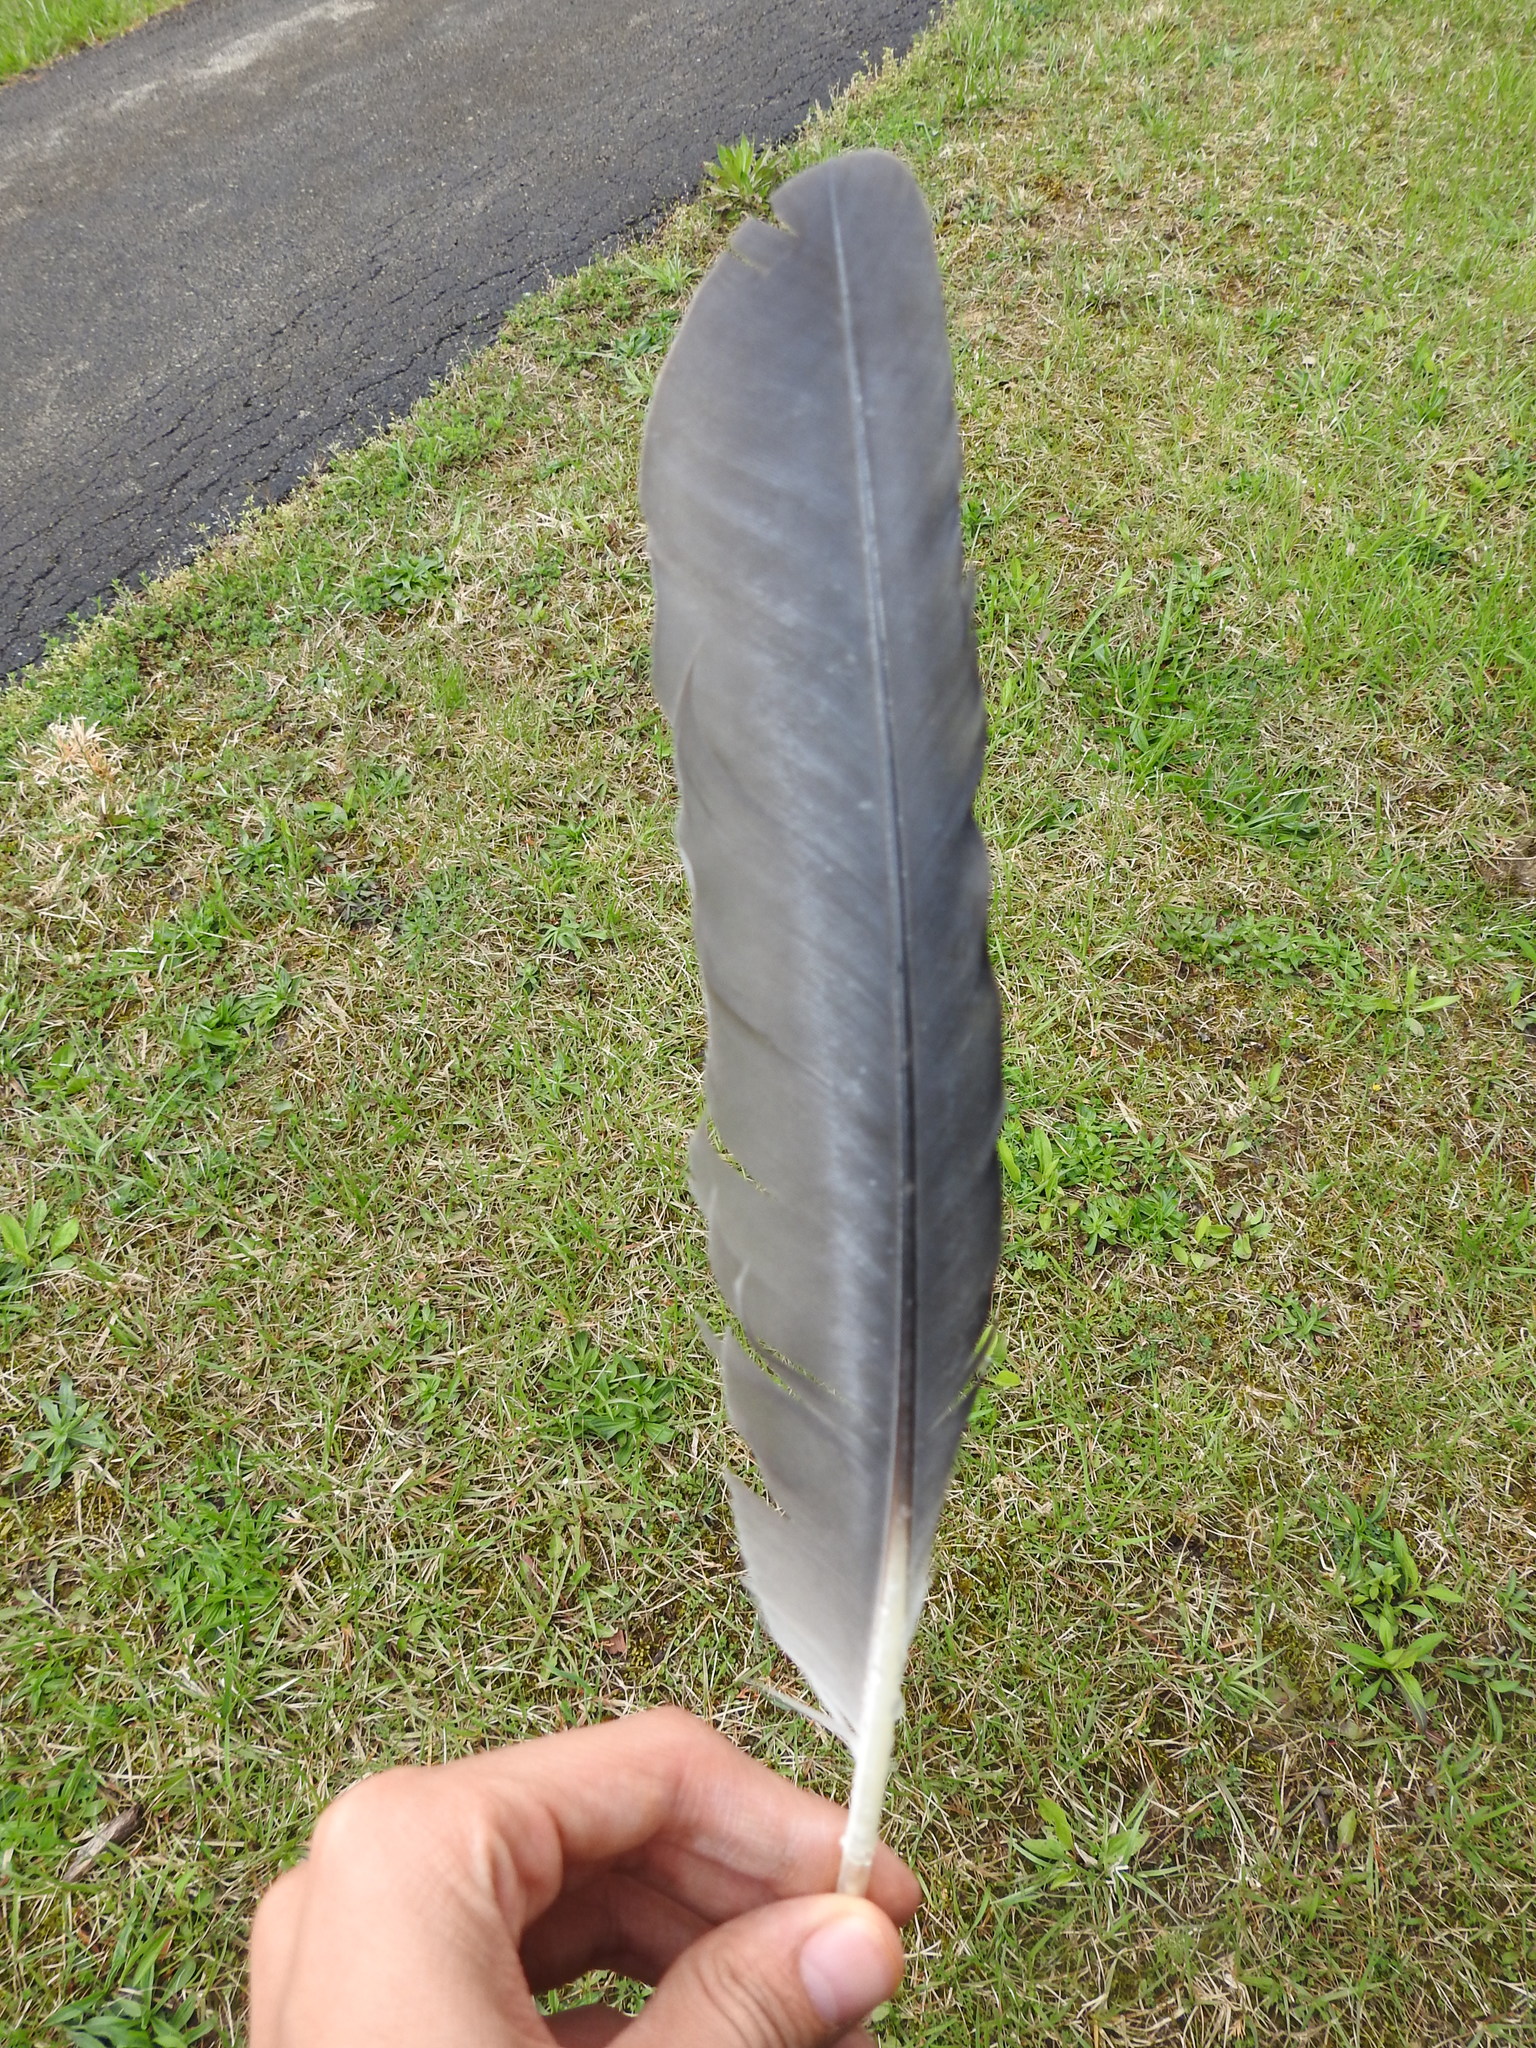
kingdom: Animalia
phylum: Chordata
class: Aves
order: Pelecaniformes
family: Ardeidae
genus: Ardea
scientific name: Ardea herodias
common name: Great blue heron
